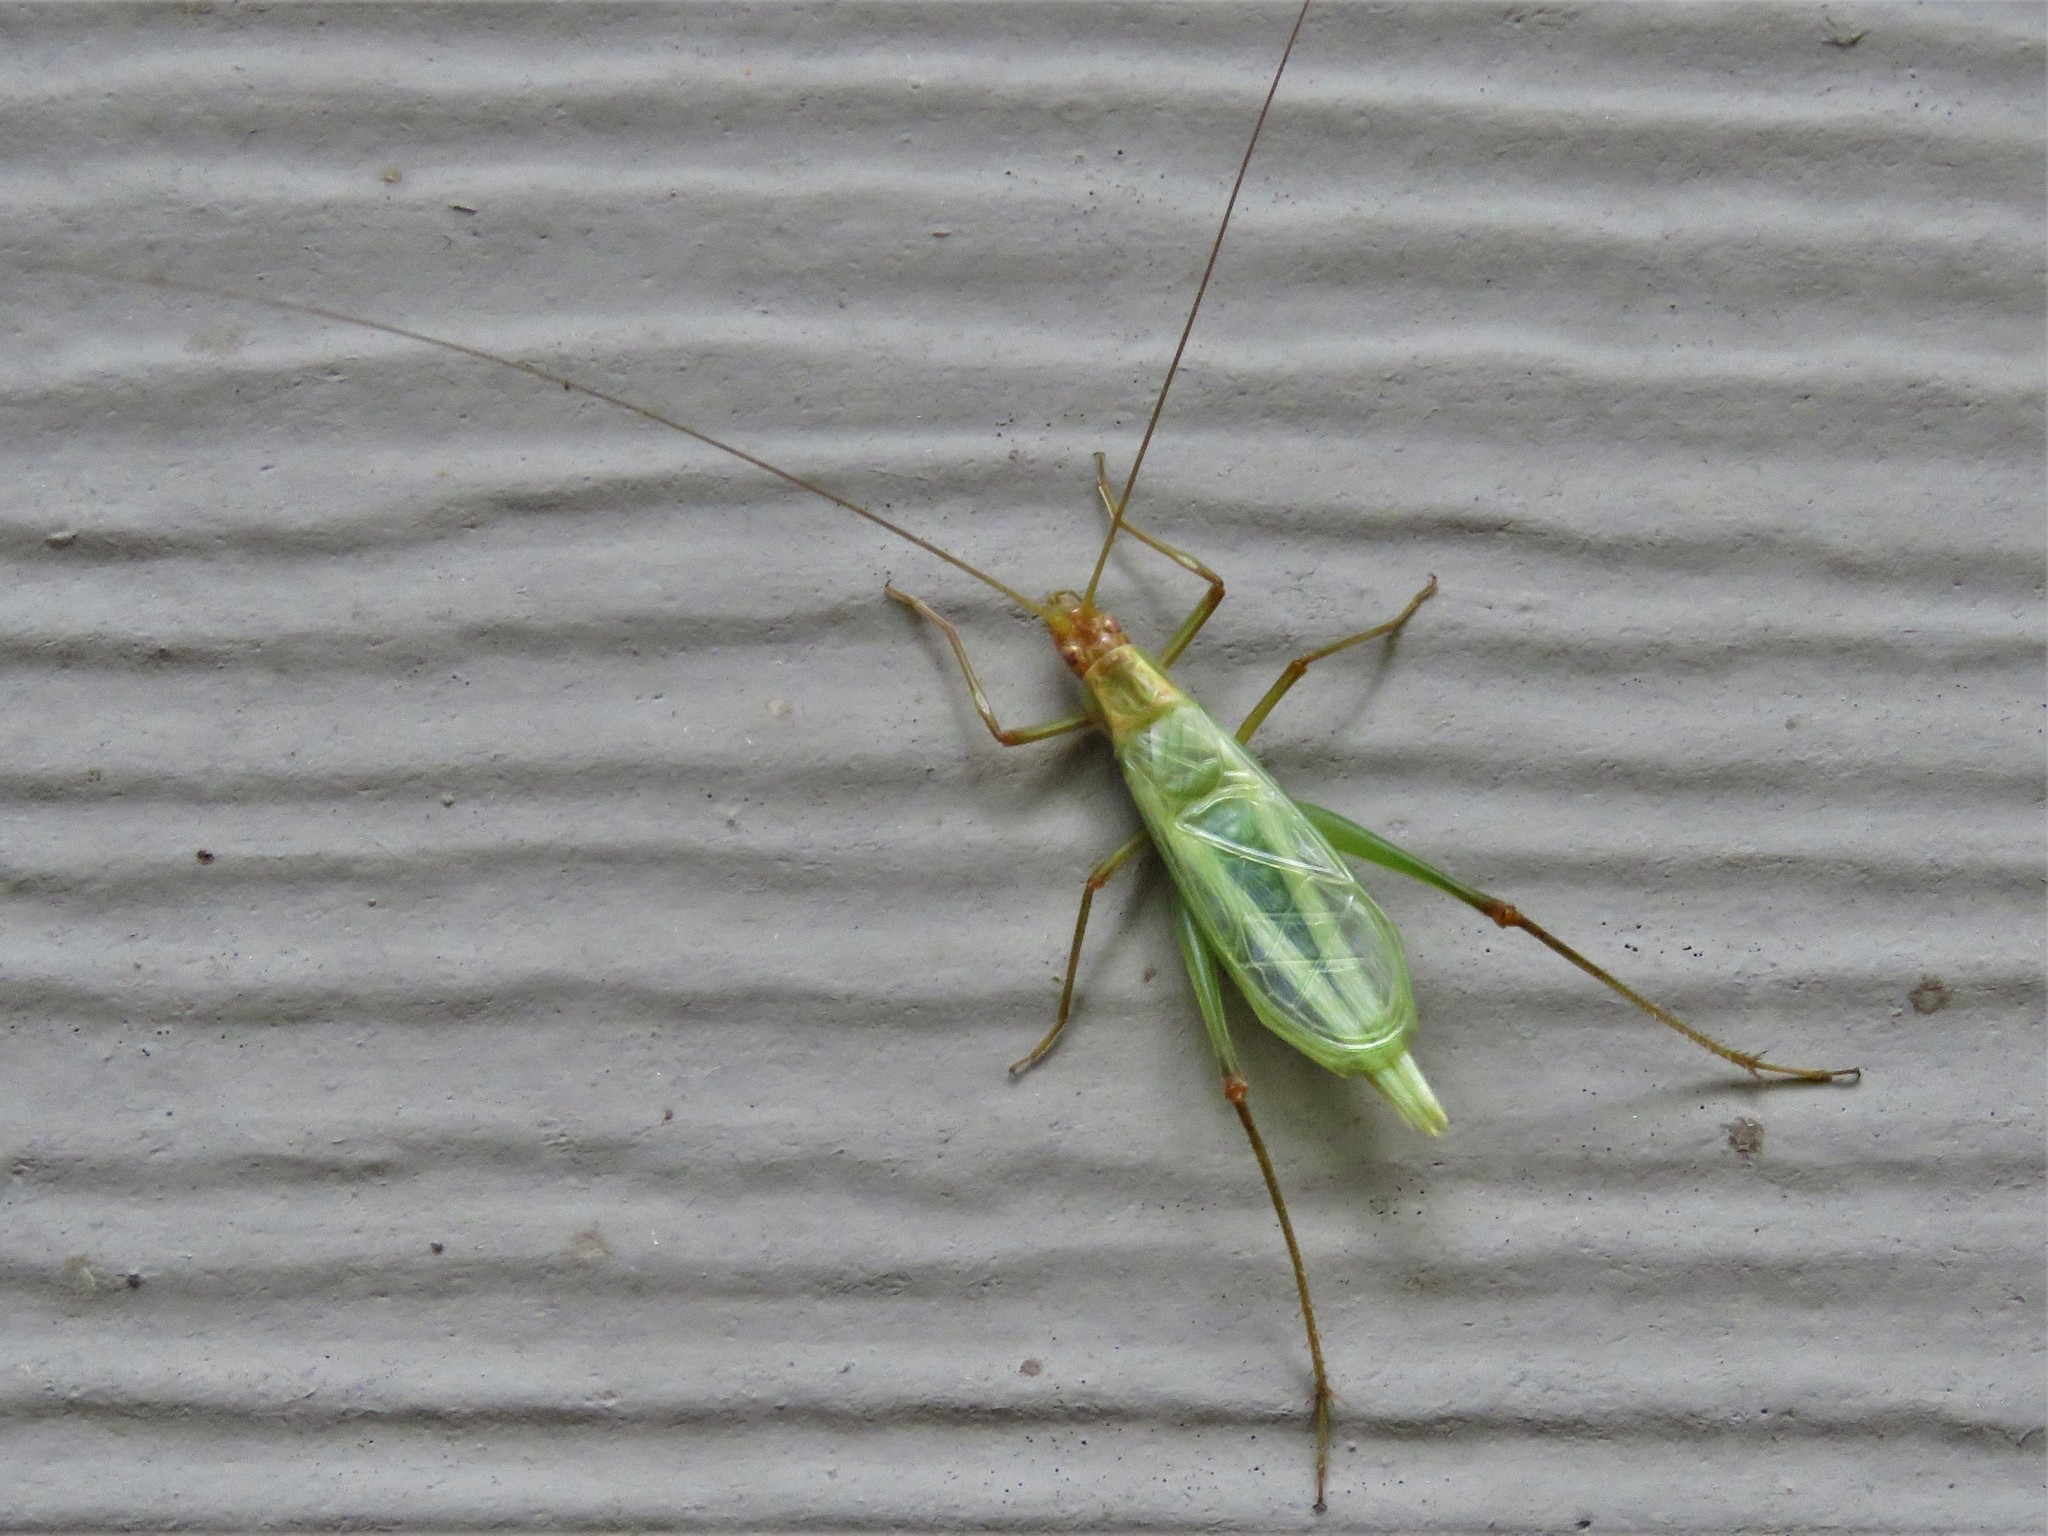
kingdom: Animalia
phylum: Arthropoda
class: Insecta
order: Orthoptera
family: Gryllidae
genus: Oecanthus
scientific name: Oecanthus pini
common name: Pine tree cricket
